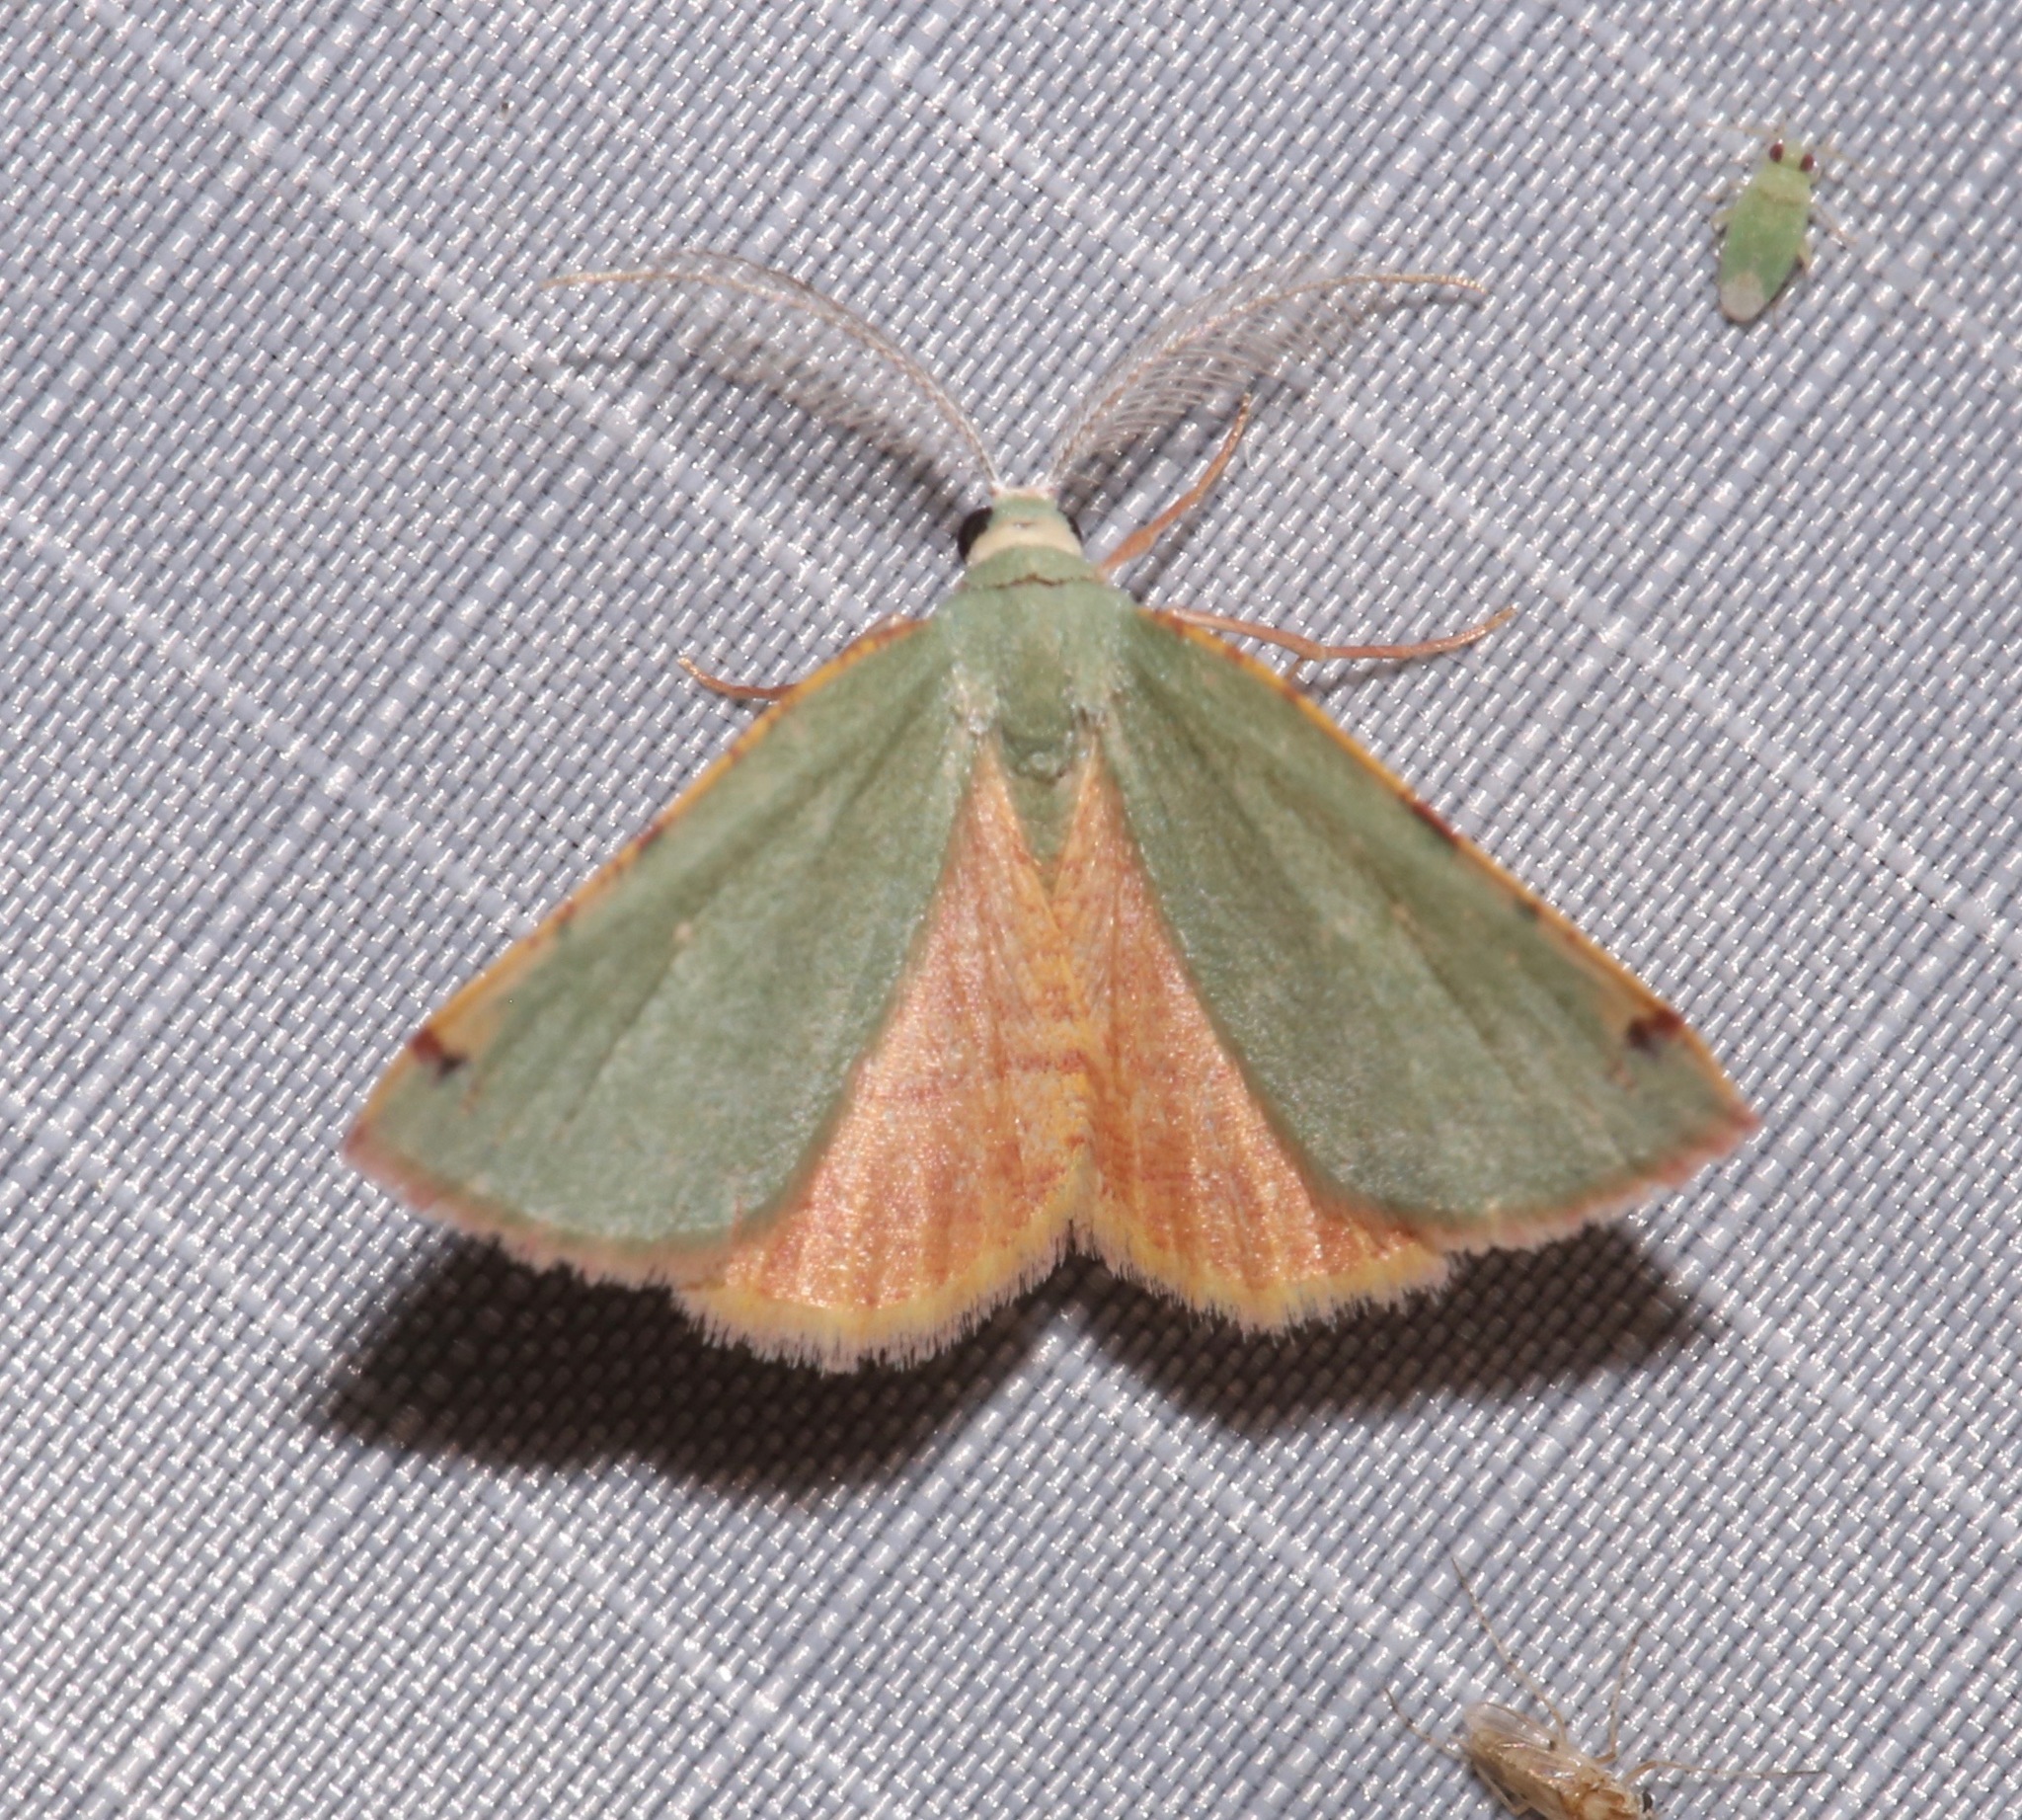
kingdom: Animalia
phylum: Arthropoda
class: Insecta
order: Lepidoptera
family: Geometridae
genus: Chloraspilates
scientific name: Chloraspilates bicoloraria
